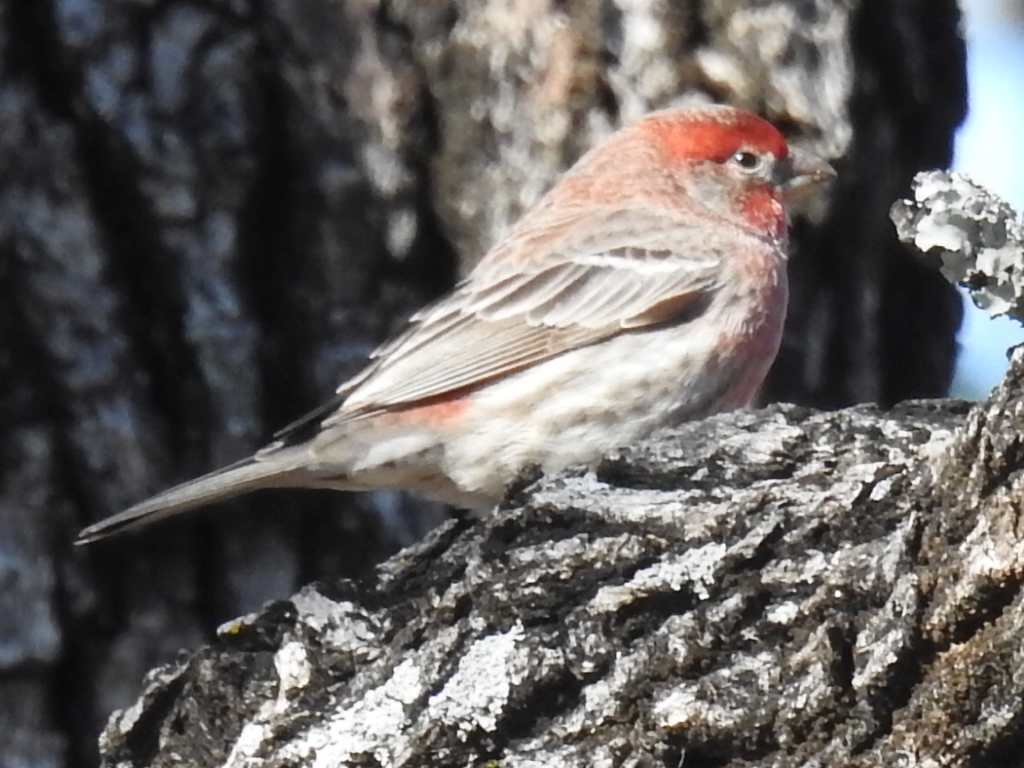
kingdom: Animalia
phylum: Chordata
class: Aves
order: Passeriformes
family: Fringillidae
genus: Haemorhous
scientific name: Haemorhous mexicanus
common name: House finch
